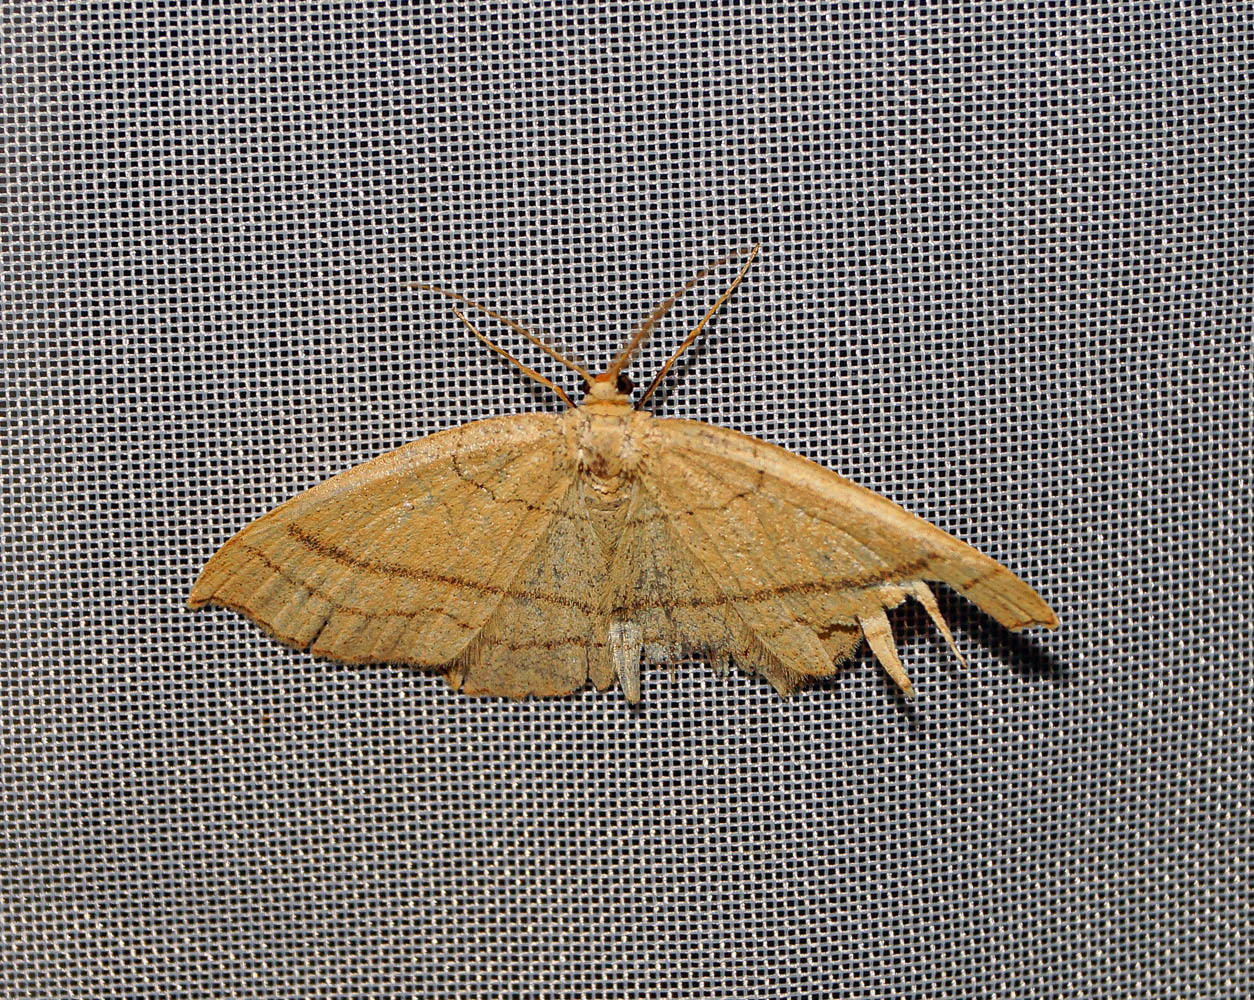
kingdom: Animalia
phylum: Arthropoda
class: Insecta
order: Lepidoptera
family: Geometridae
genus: Cyclophora
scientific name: Cyclophora linearia
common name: Clay triple-lines
